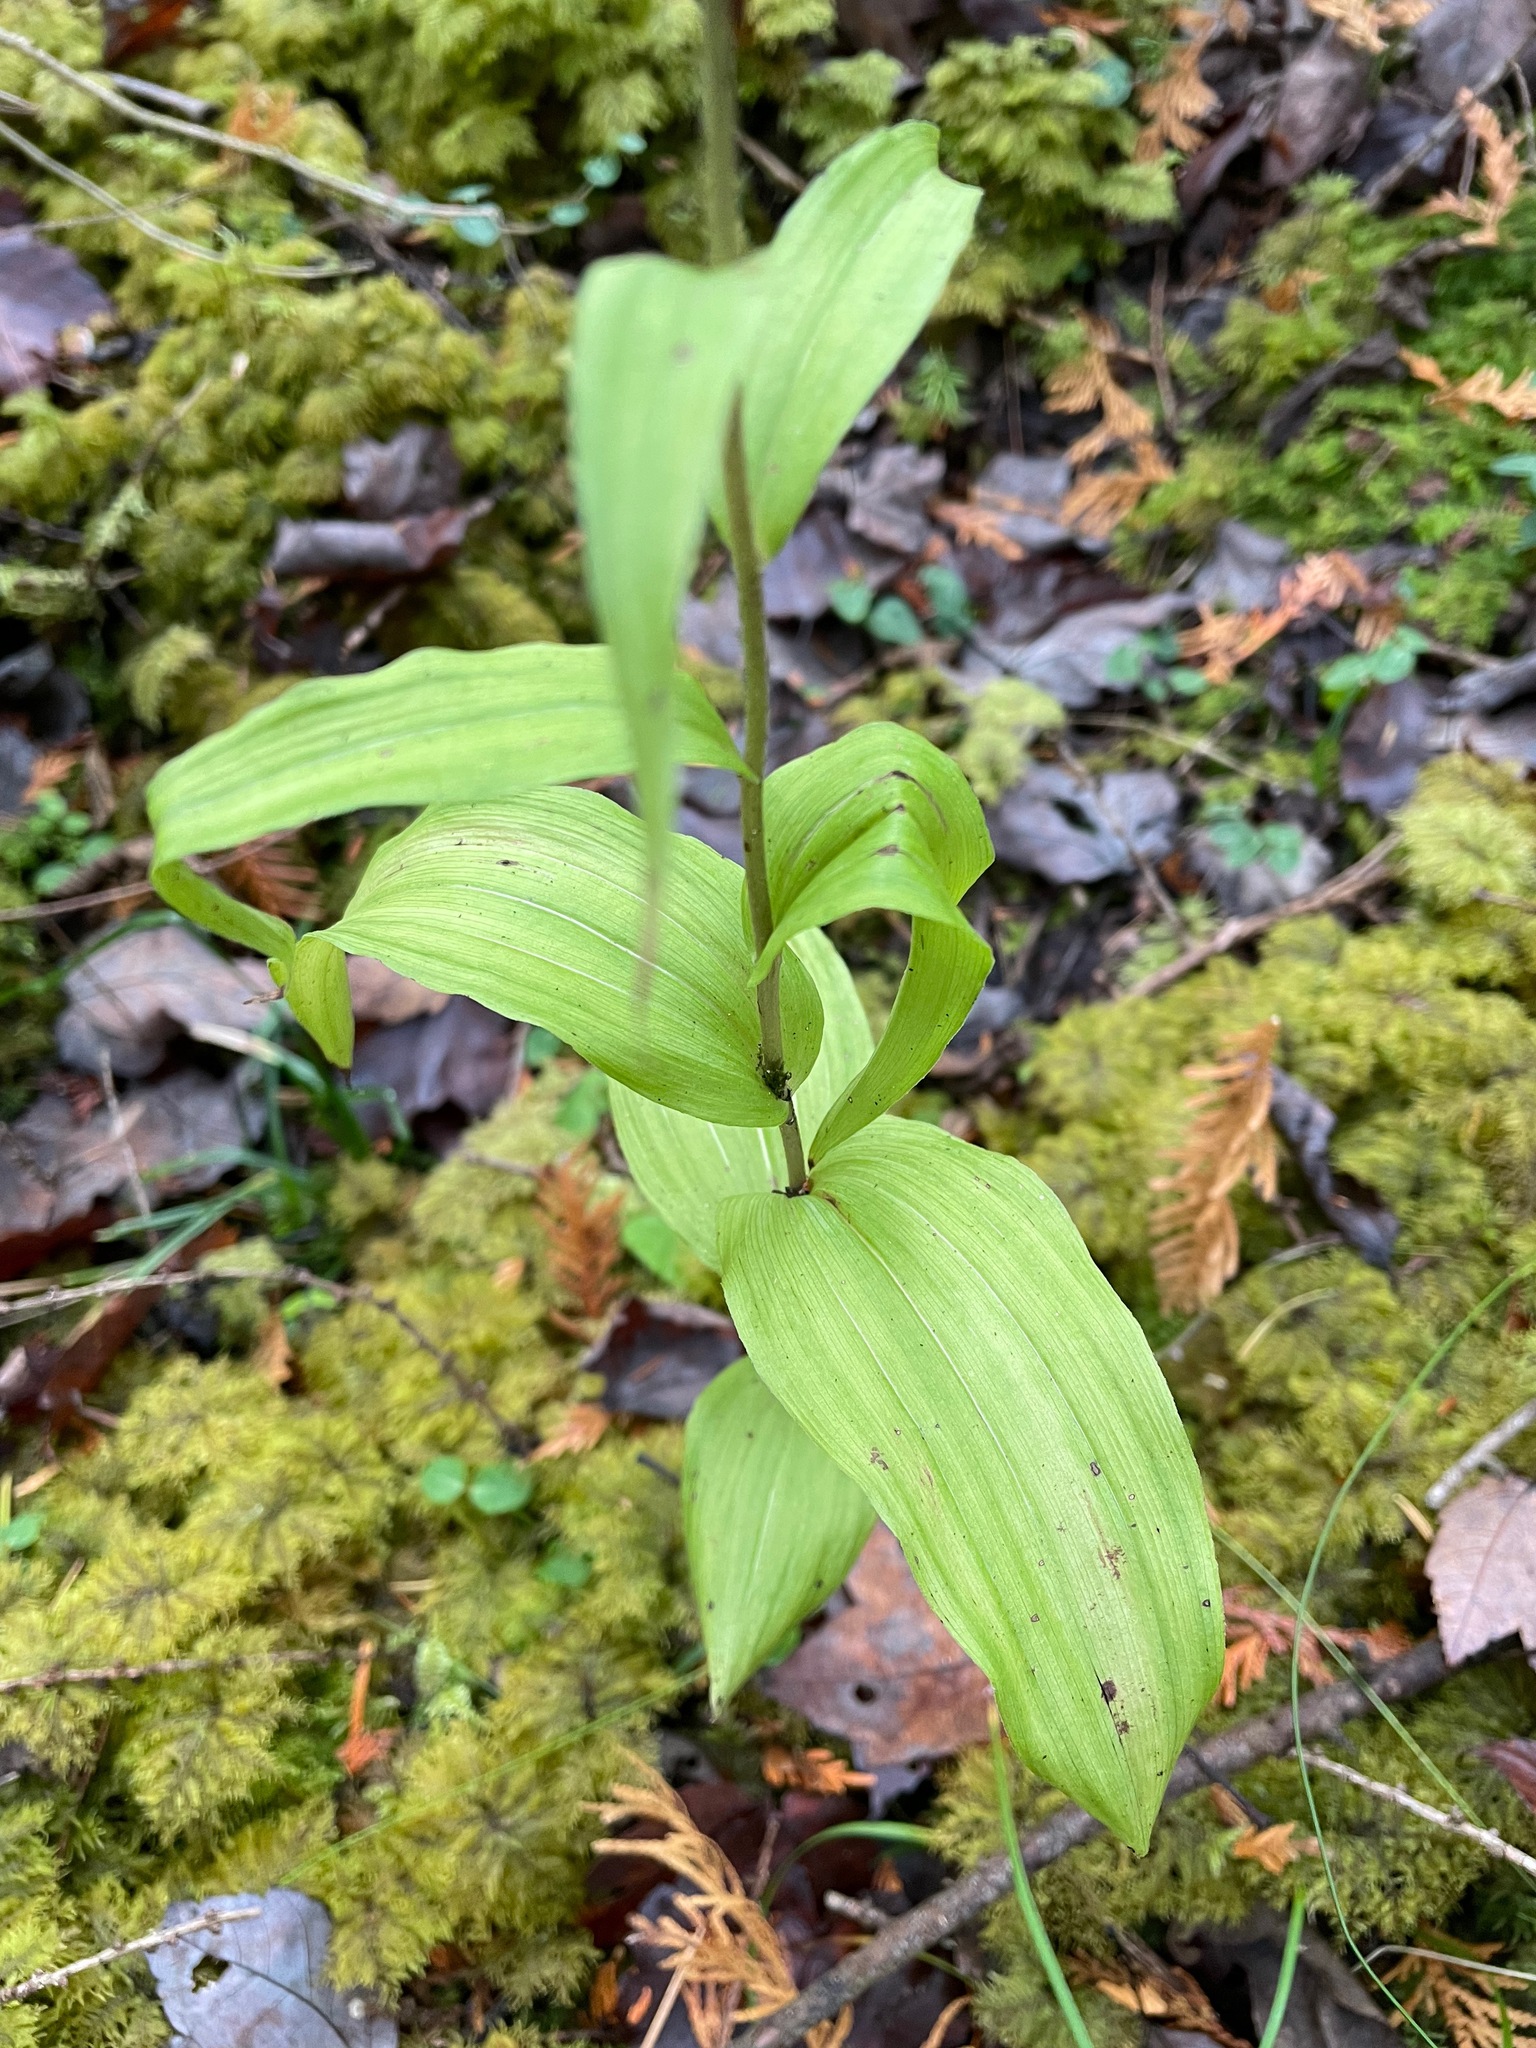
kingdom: Plantae
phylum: Tracheophyta
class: Liliopsida
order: Asparagales
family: Orchidaceae
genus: Epipactis
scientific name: Epipactis helleborine
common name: Broad-leaved helleborine
